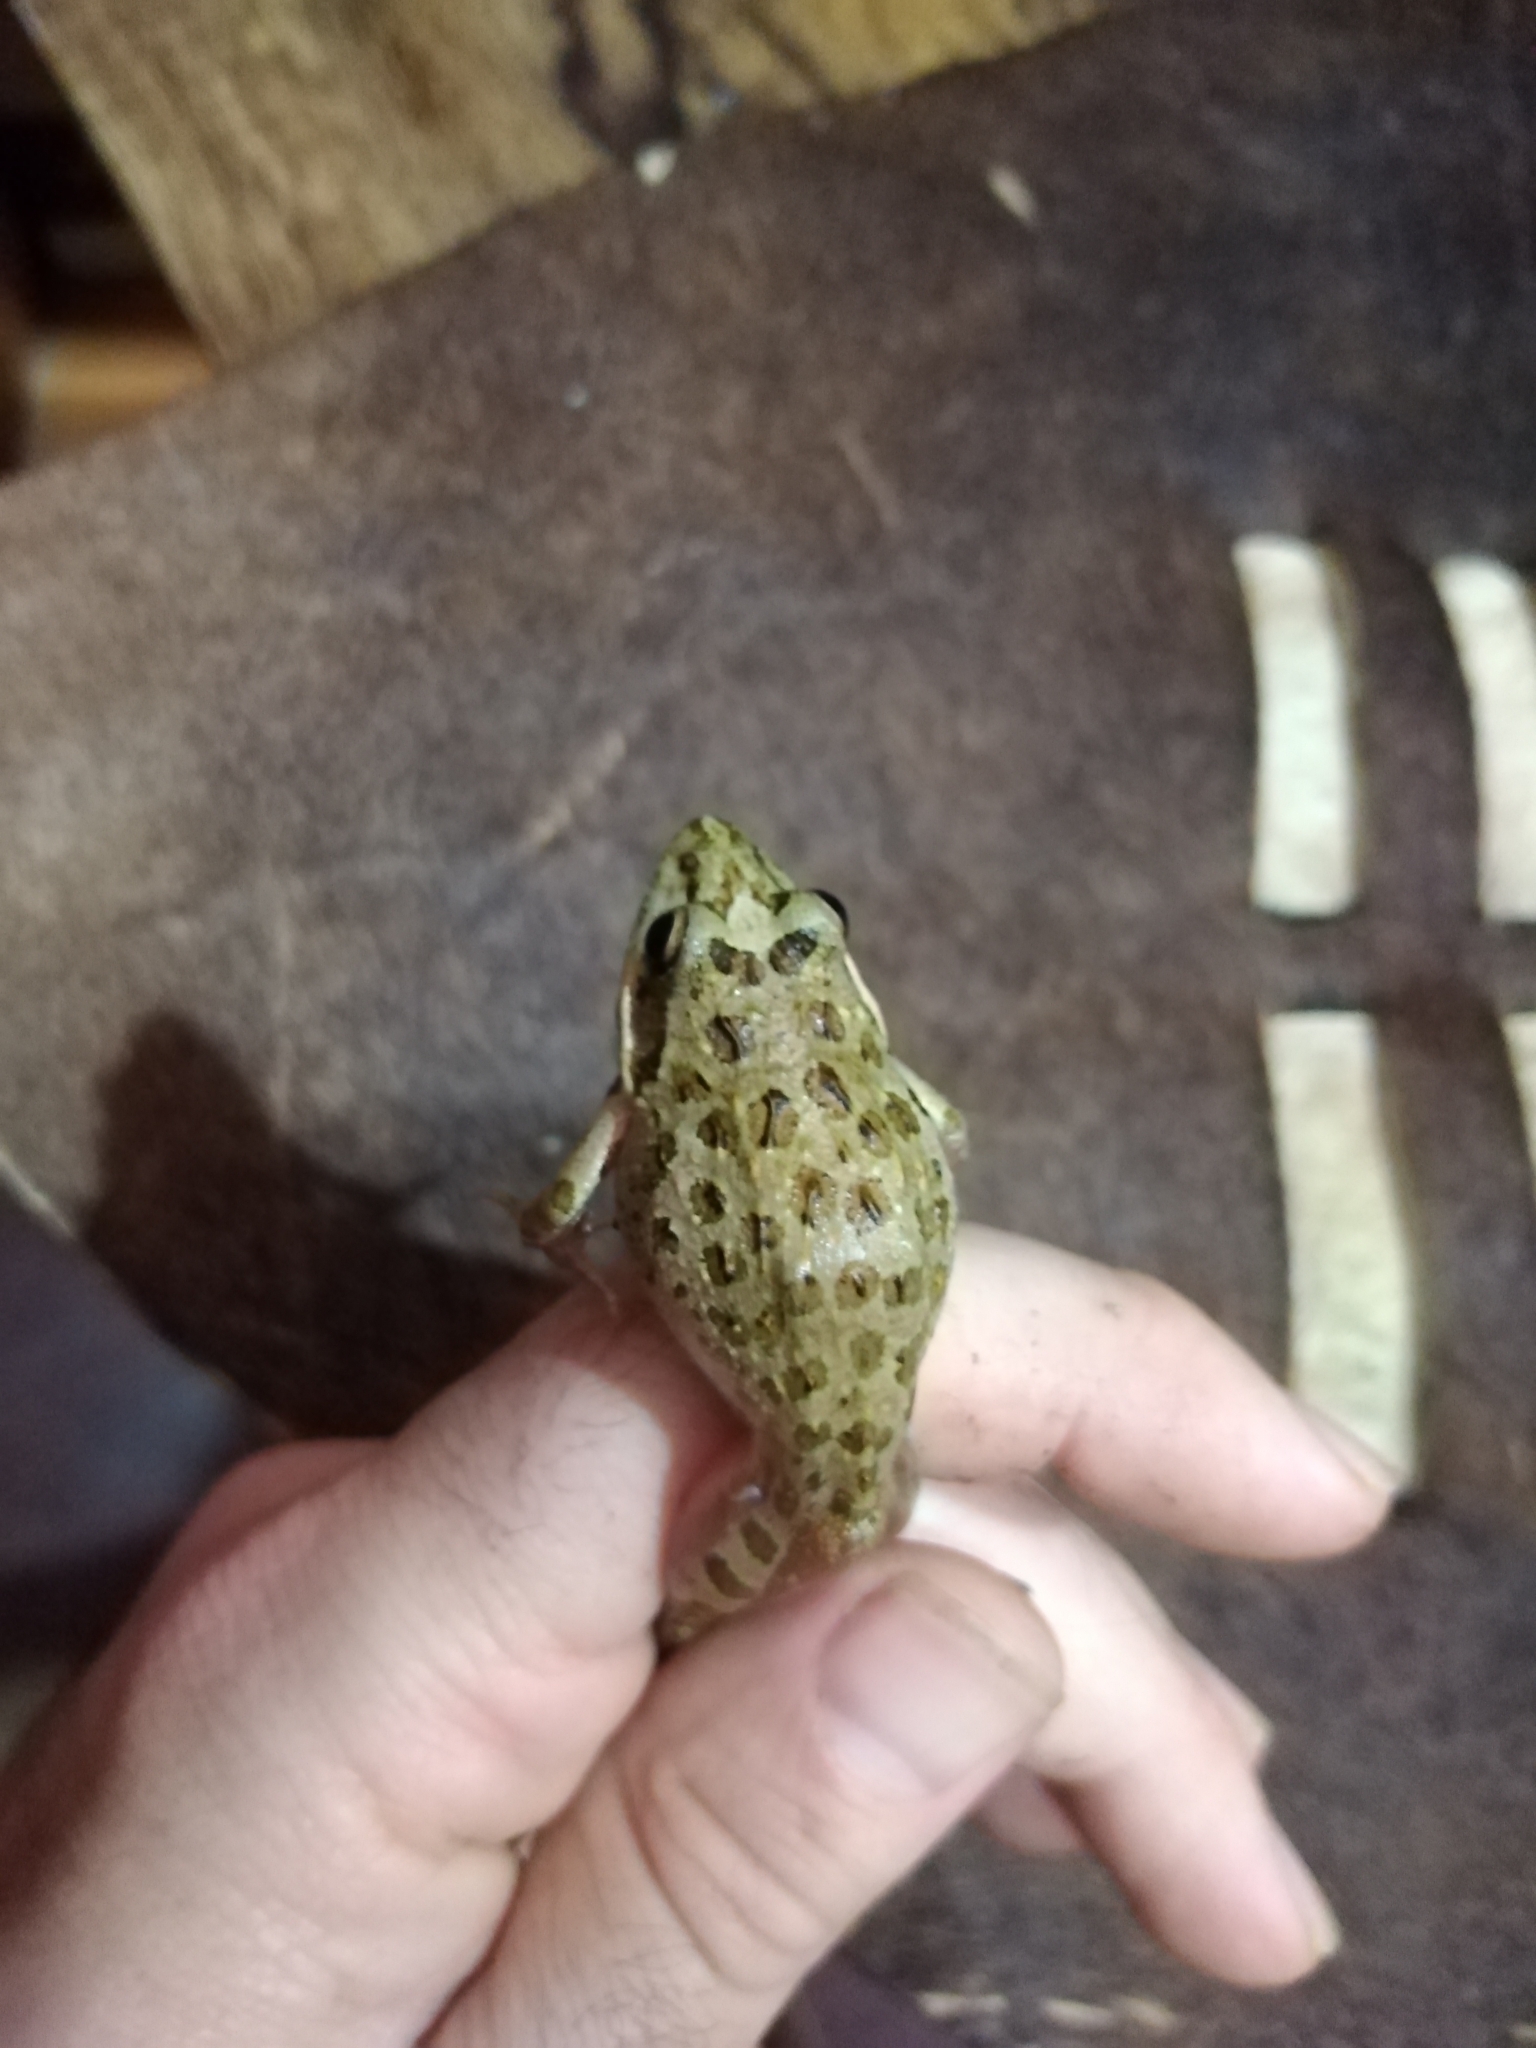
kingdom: Animalia
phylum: Chordata
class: Amphibia
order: Anura
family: Pyxicephalidae
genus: Strongylopus
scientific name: Strongylopus grayii
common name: Gray's stream frog
